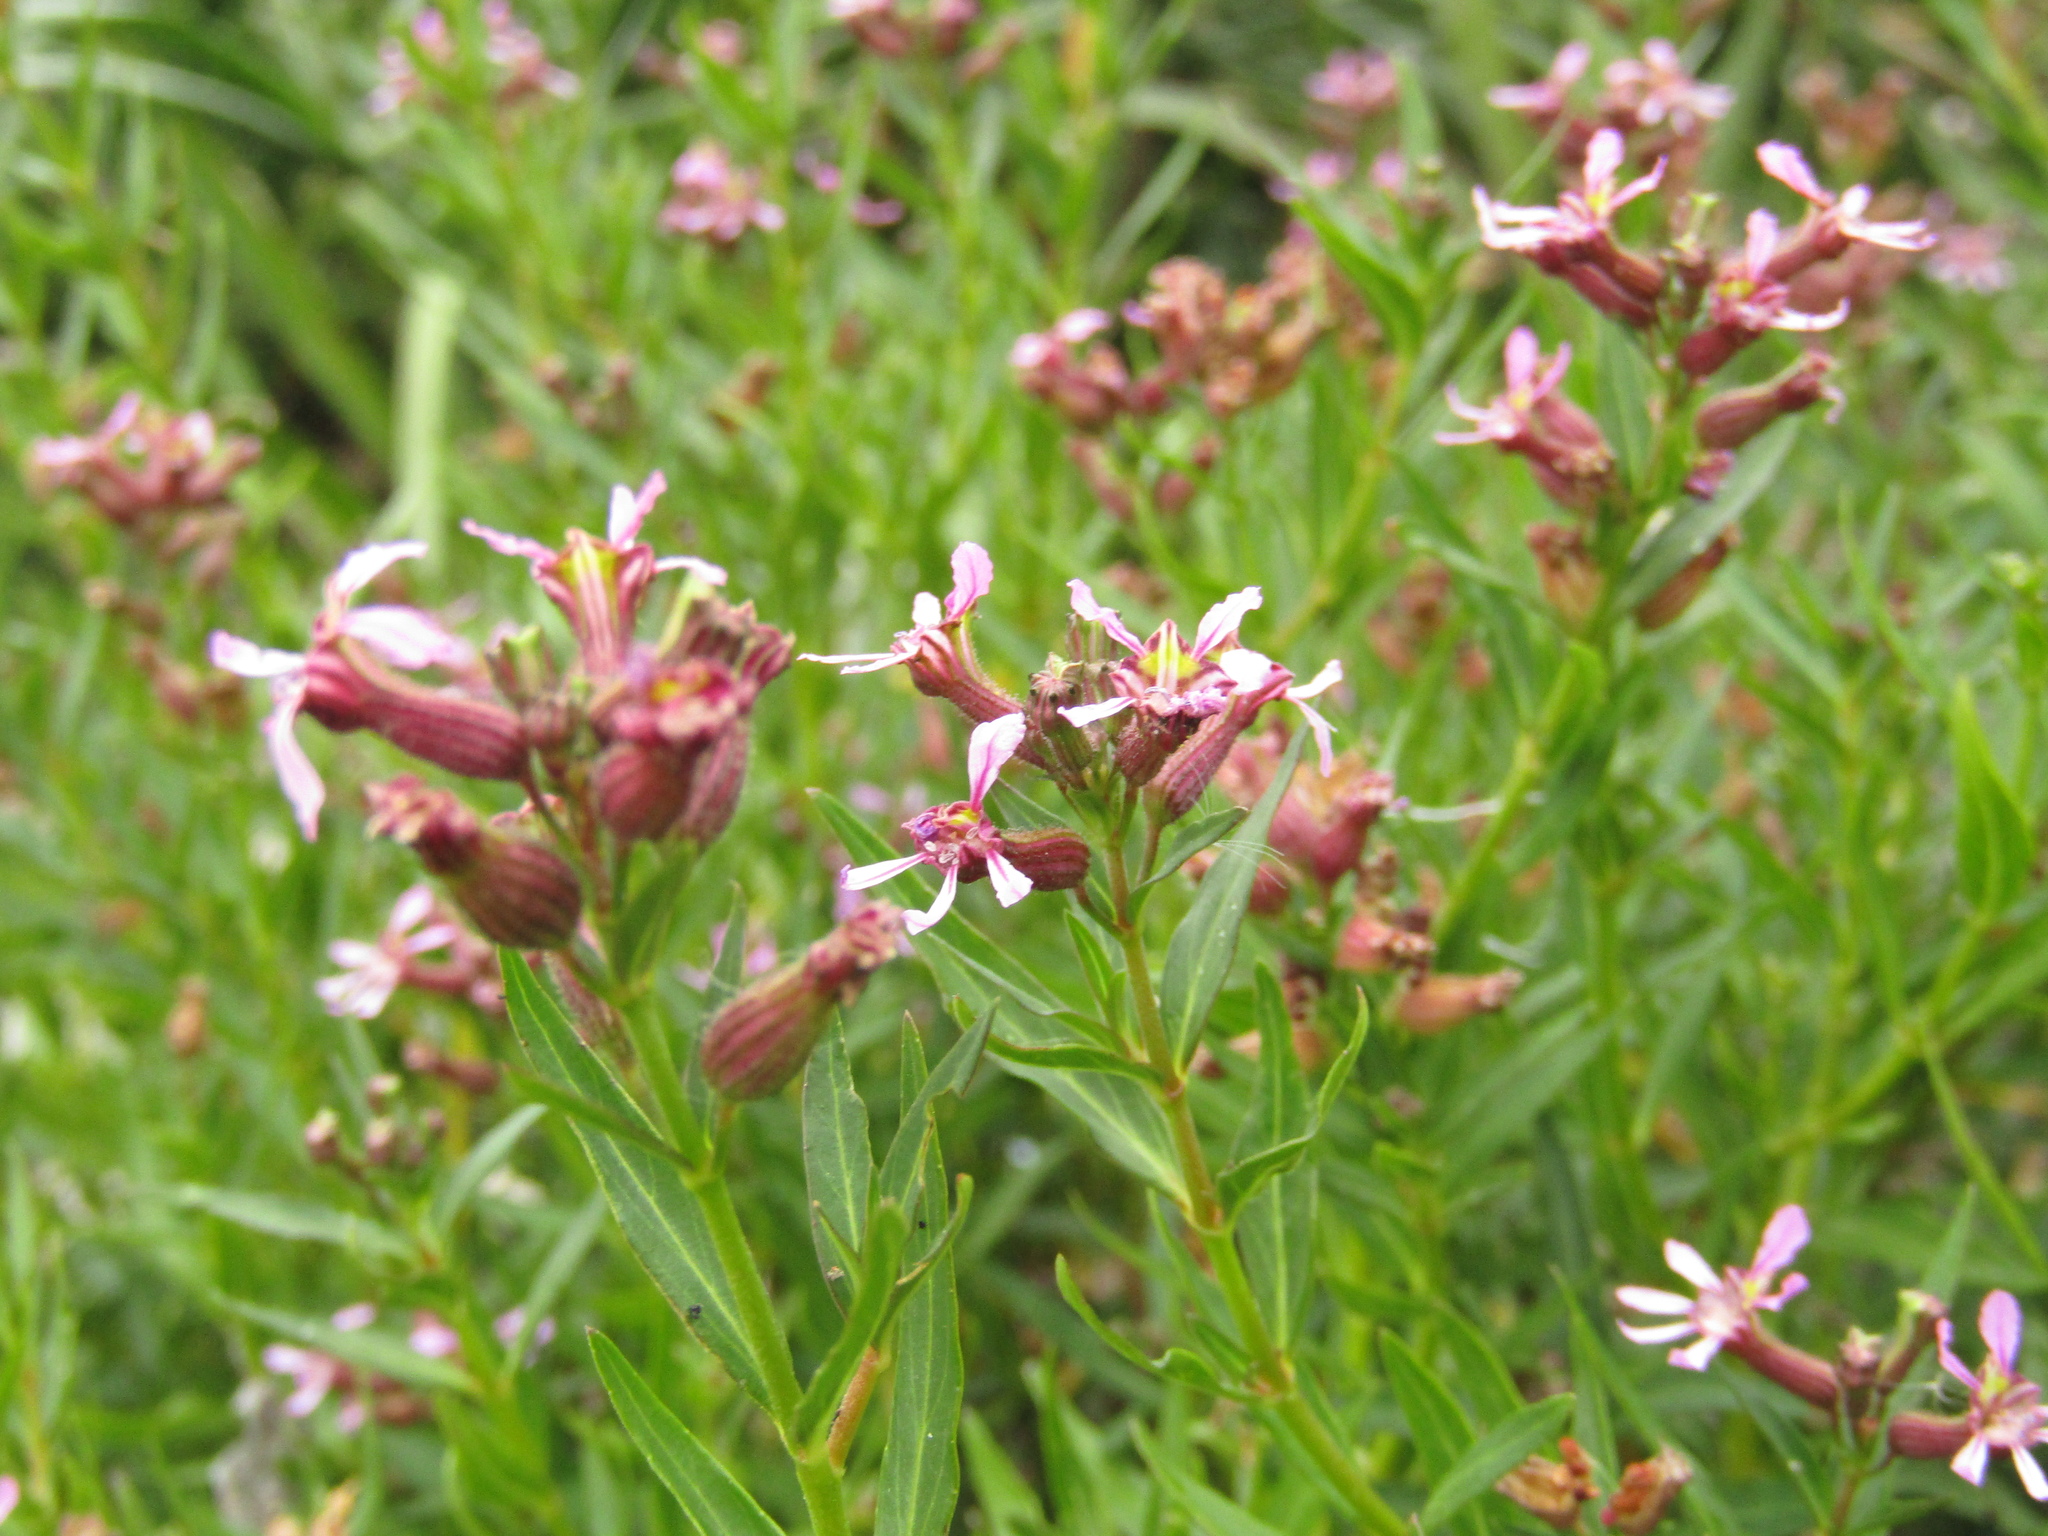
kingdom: Plantae
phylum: Tracheophyta
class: Magnoliopsida
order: Myrtales
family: Lythraceae
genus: Cuphea
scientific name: Cuphea fruticosa
